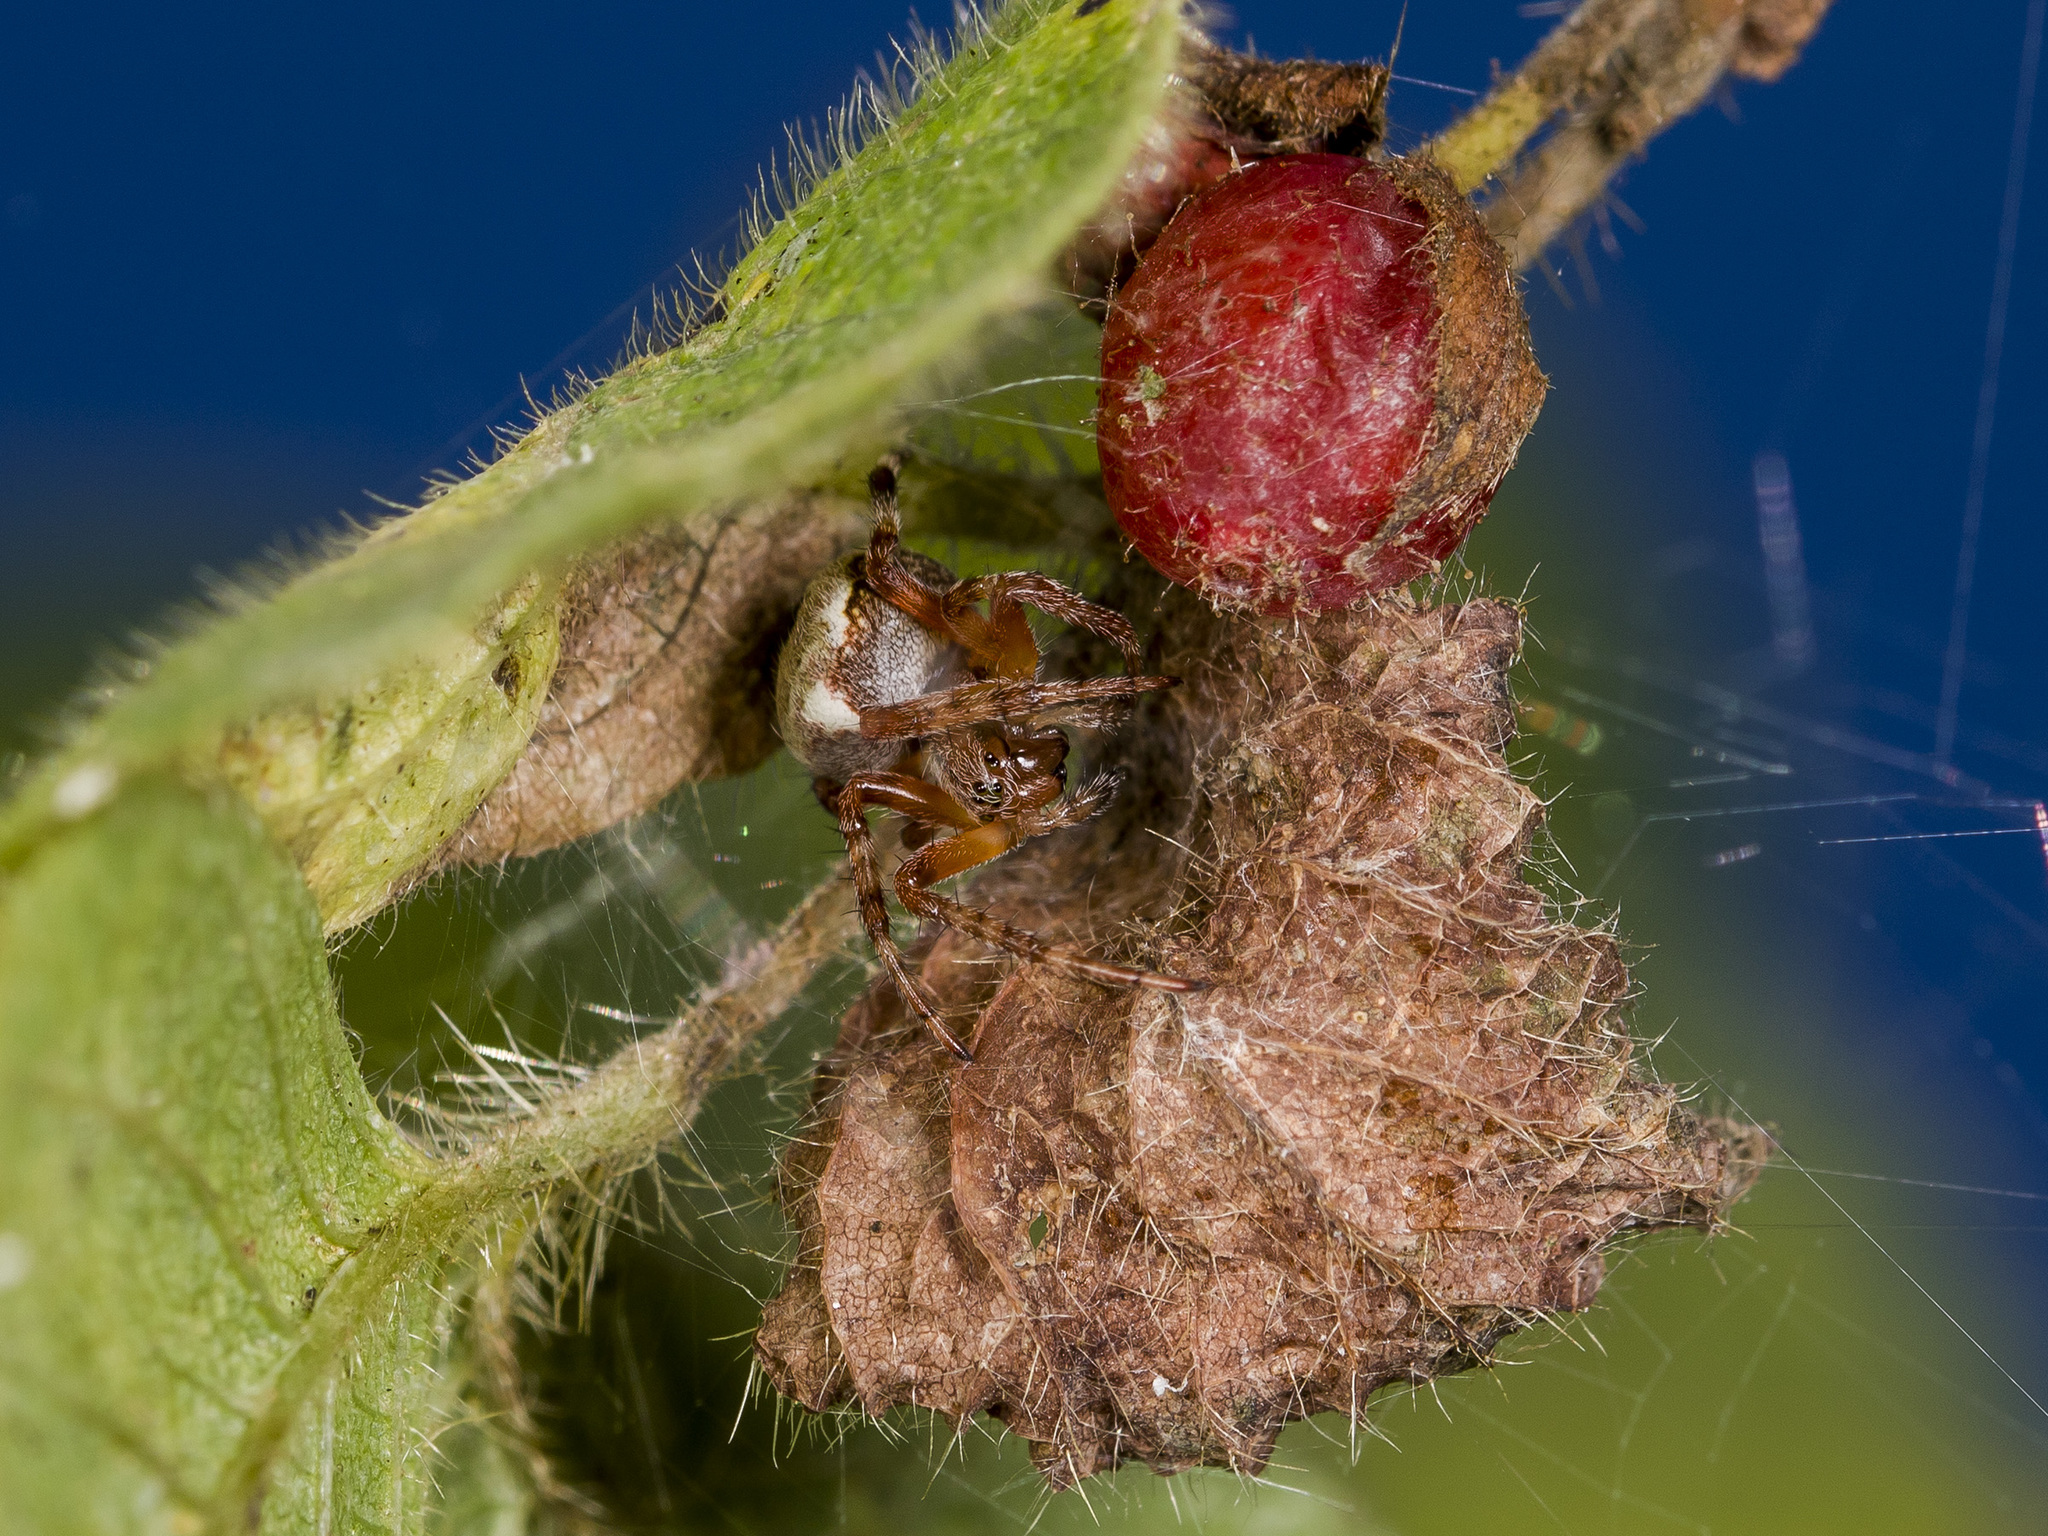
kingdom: Animalia
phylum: Arthropoda
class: Arachnida
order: Araneae
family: Araneidae
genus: Araneus
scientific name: Araneus marmoreus
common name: Marbled orbweaver
